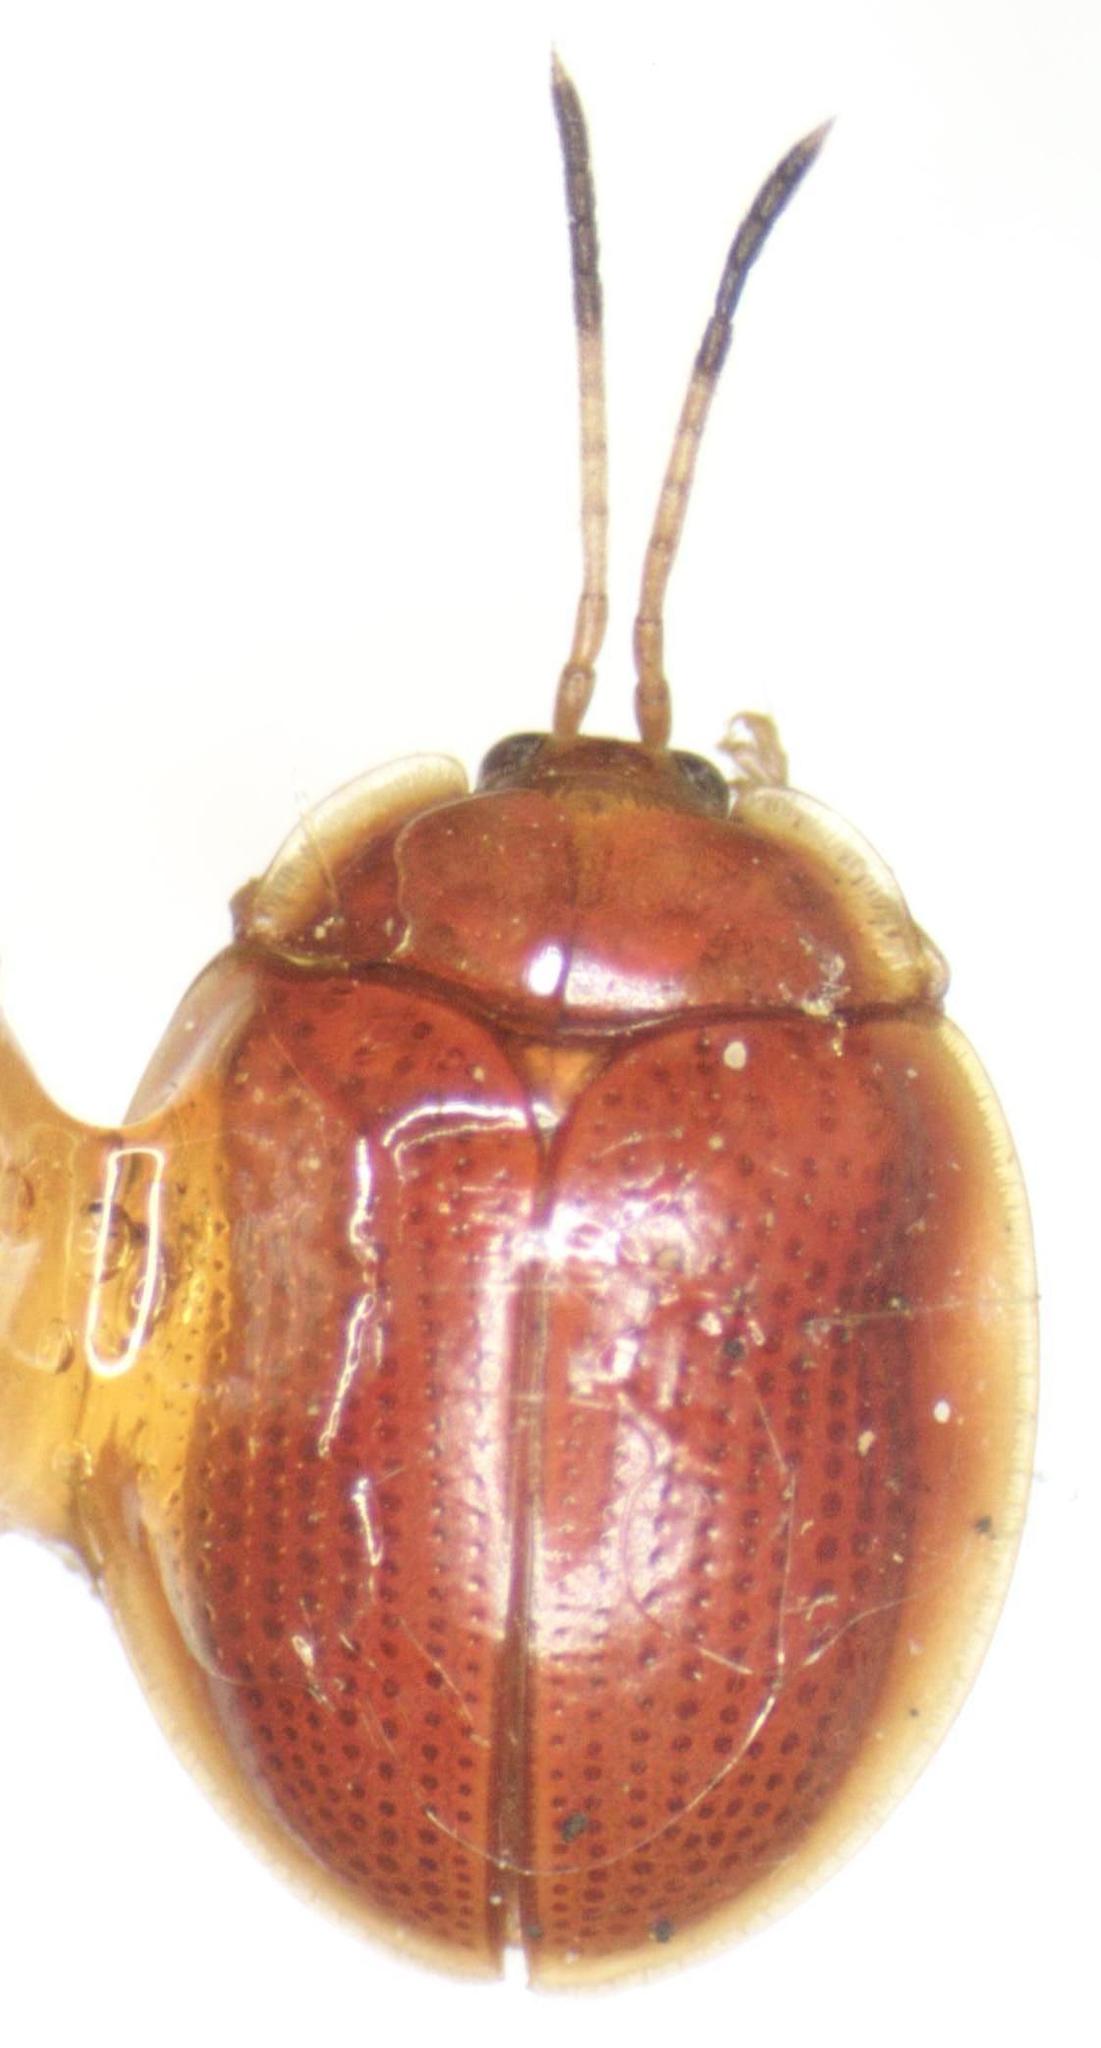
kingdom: Animalia
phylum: Arthropoda
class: Insecta
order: Coleoptera
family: Chrysomelidae
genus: Demotispa
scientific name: Demotispa
